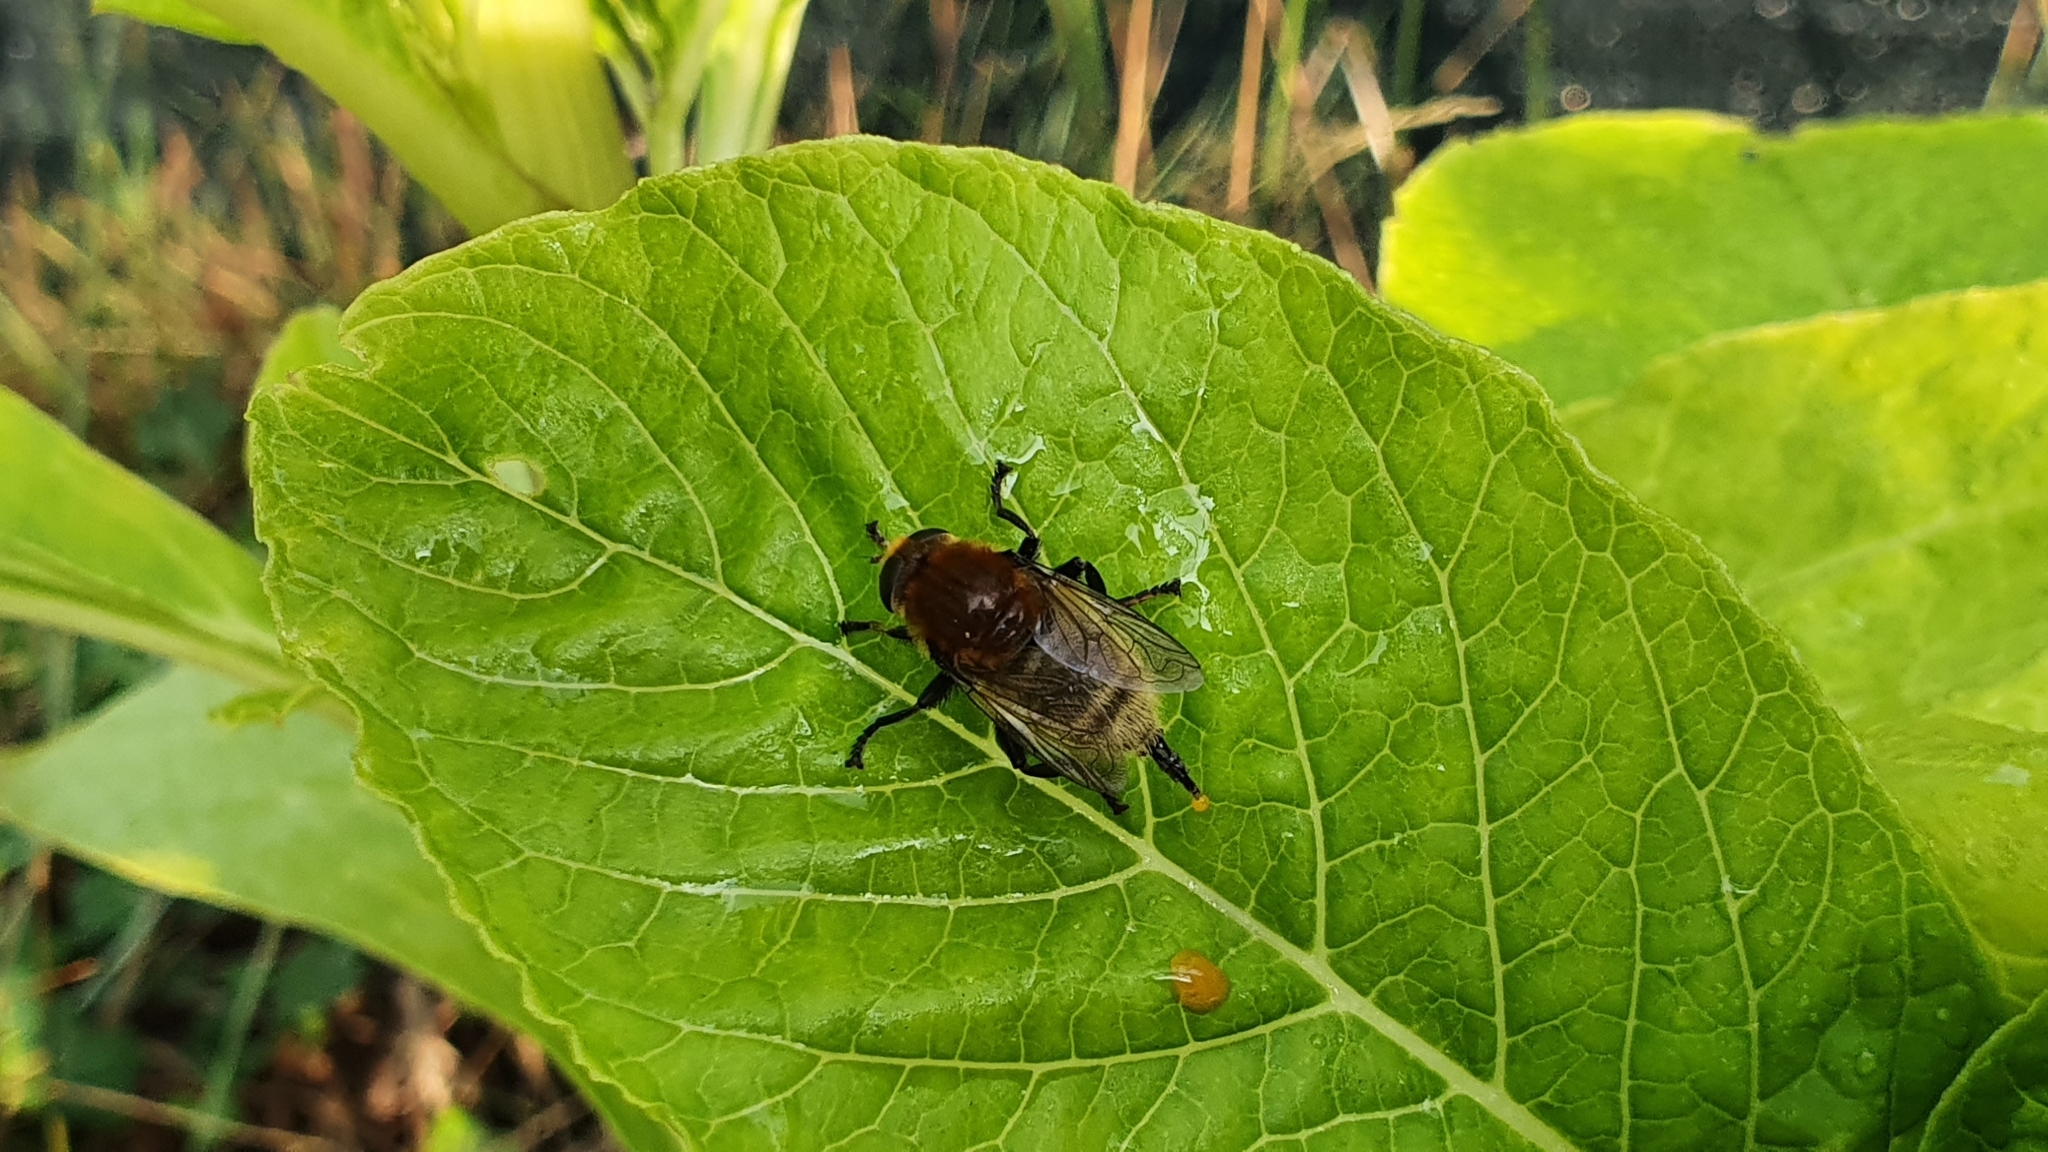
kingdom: Animalia
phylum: Arthropoda
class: Insecta
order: Diptera
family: Syrphidae
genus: Merodon
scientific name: Merodon equestris
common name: Greater bulb-fly
